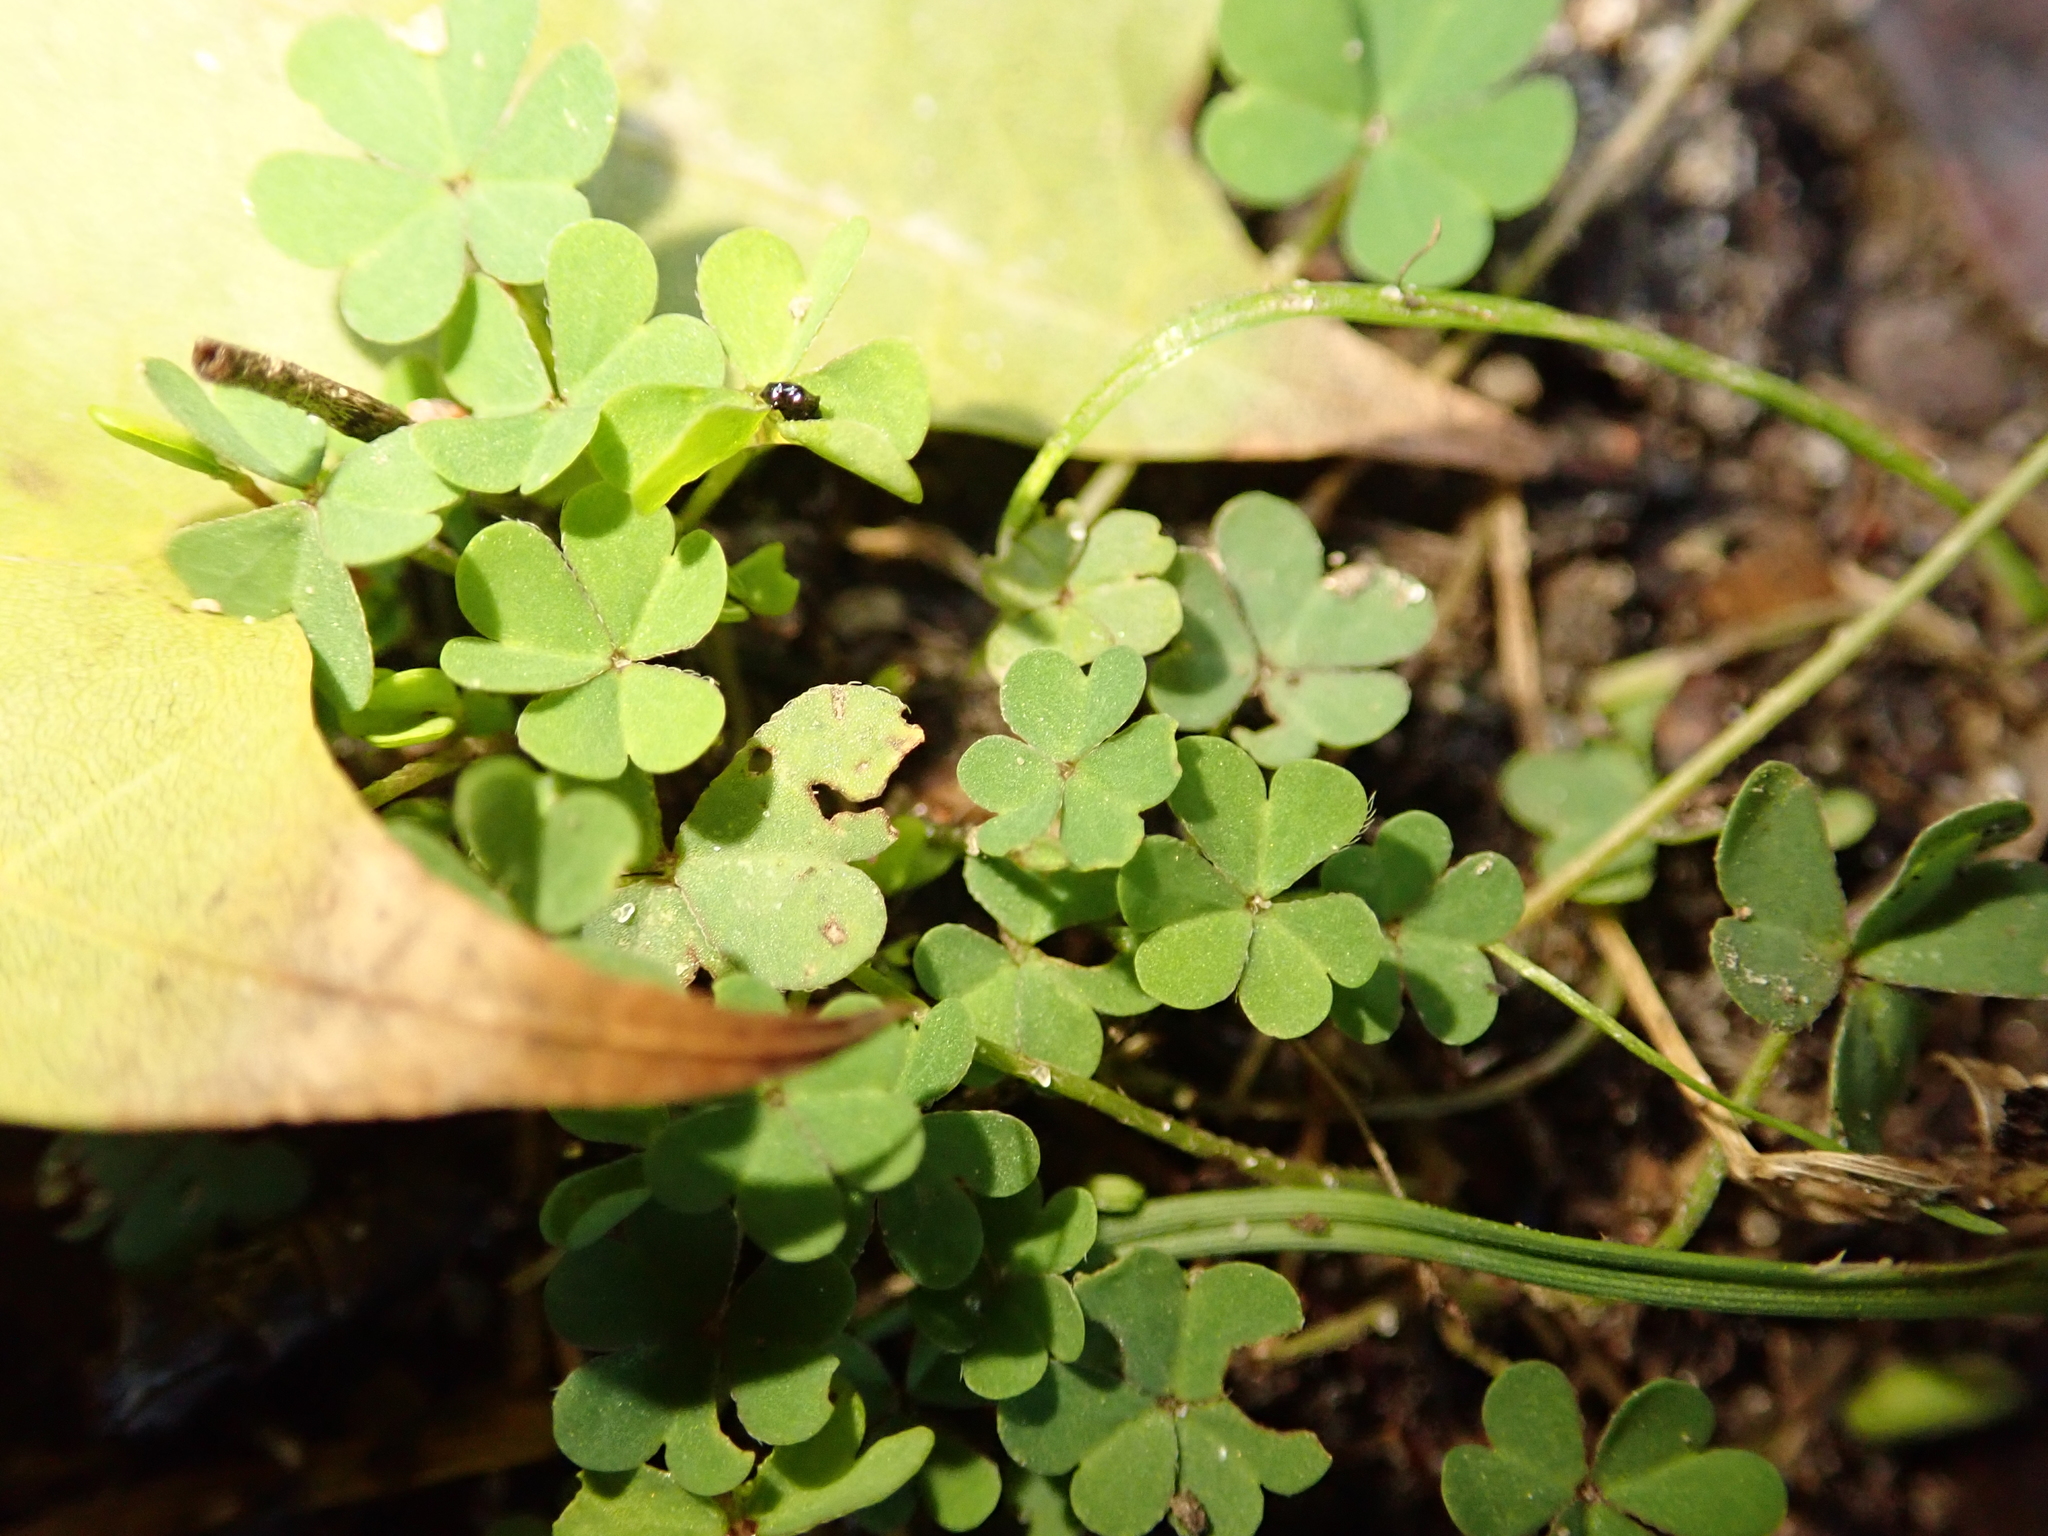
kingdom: Plantae
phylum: Tracheophyta
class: Magnoliopsida
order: Oxalidales
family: Oxalidaceae
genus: Oxalis
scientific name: Oxalis corniculata
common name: Procumbent yellow-sorrel
